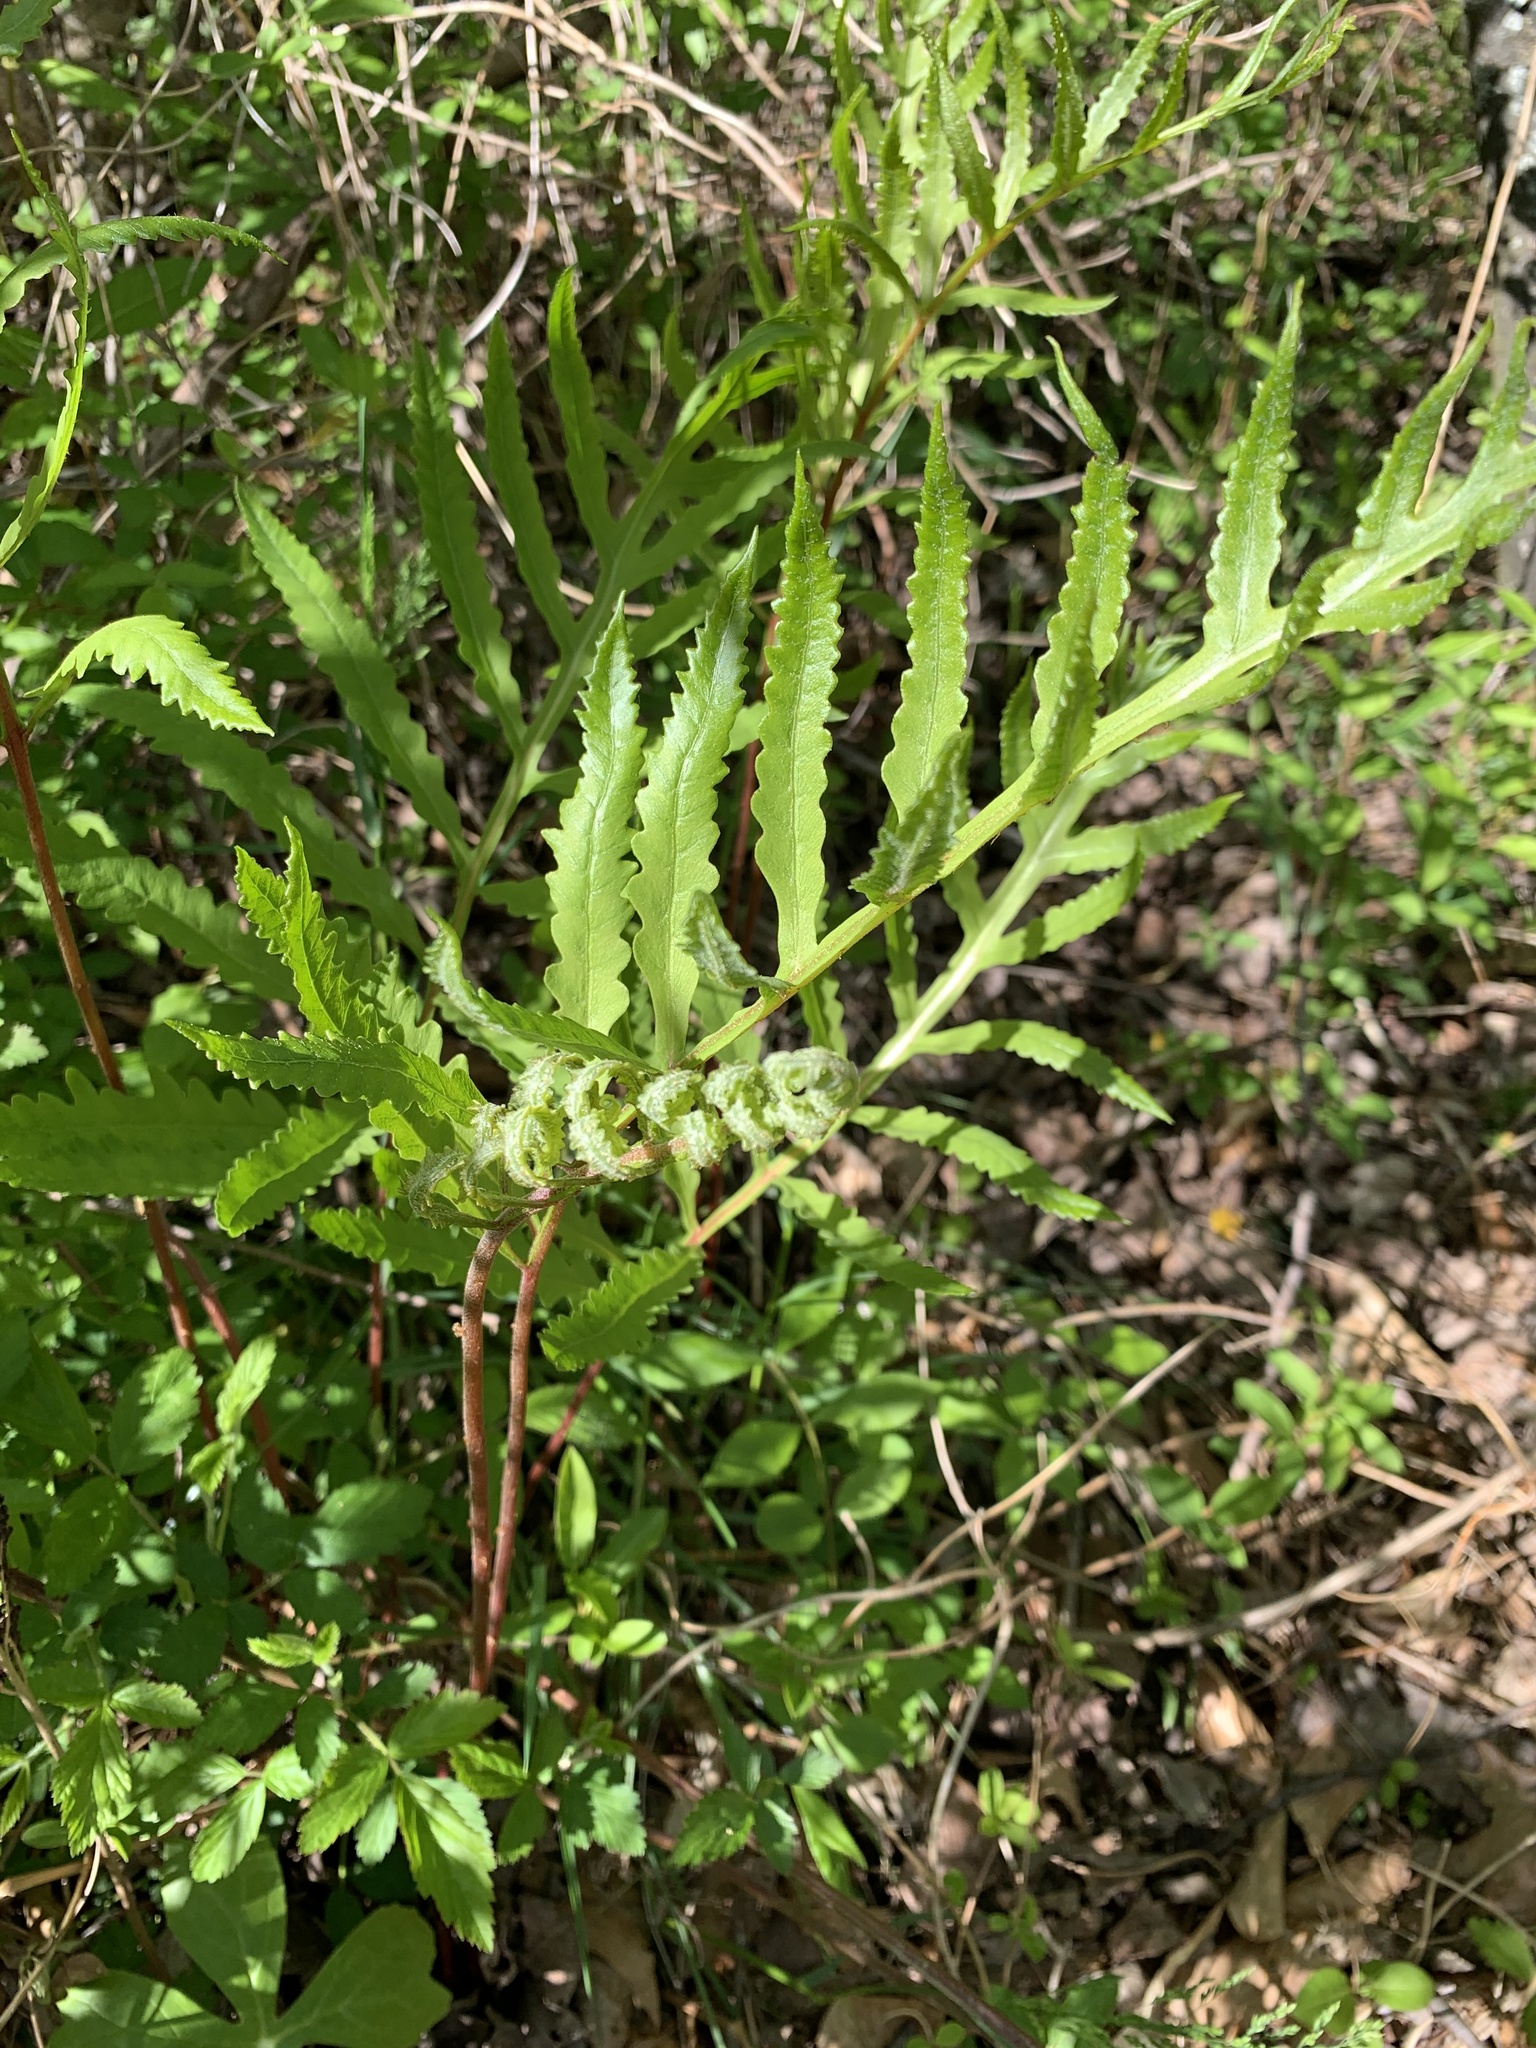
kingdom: Plantae
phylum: Tracheophyta
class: Polypodiopsida
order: Polypodiales
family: Onocleaceae
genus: Onoclea
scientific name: Onoclea sensibilis
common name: Sensitive fern
